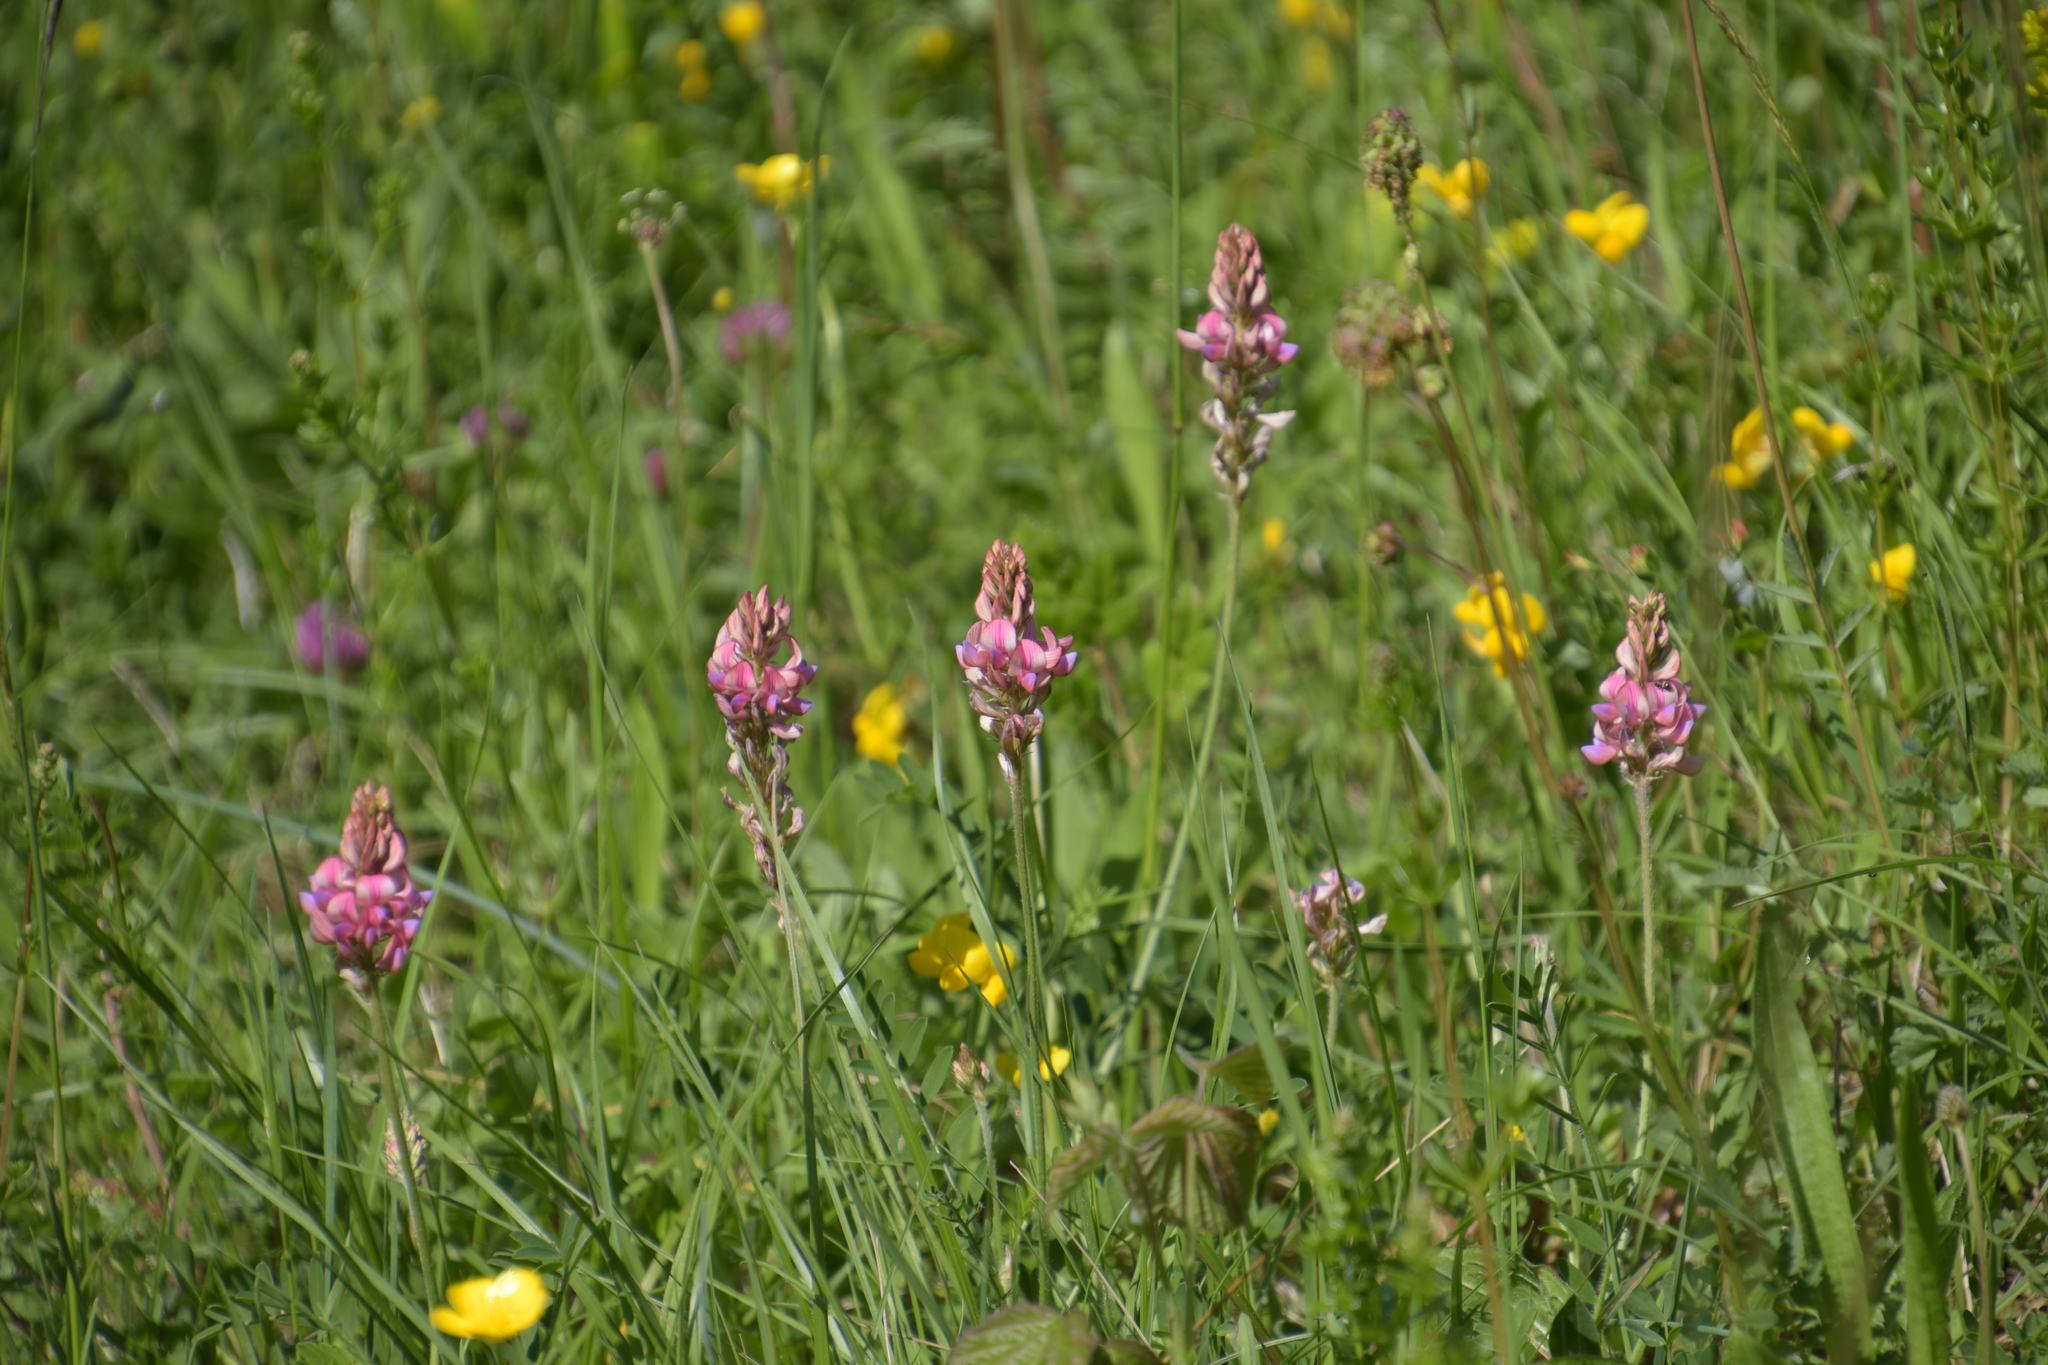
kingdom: Plantae
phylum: Tracheophyta
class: Magnoliopsida
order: Fabales
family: Fabaceae
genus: Onobrychis
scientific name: Onobrychis viciifolia
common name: Sainfoin
